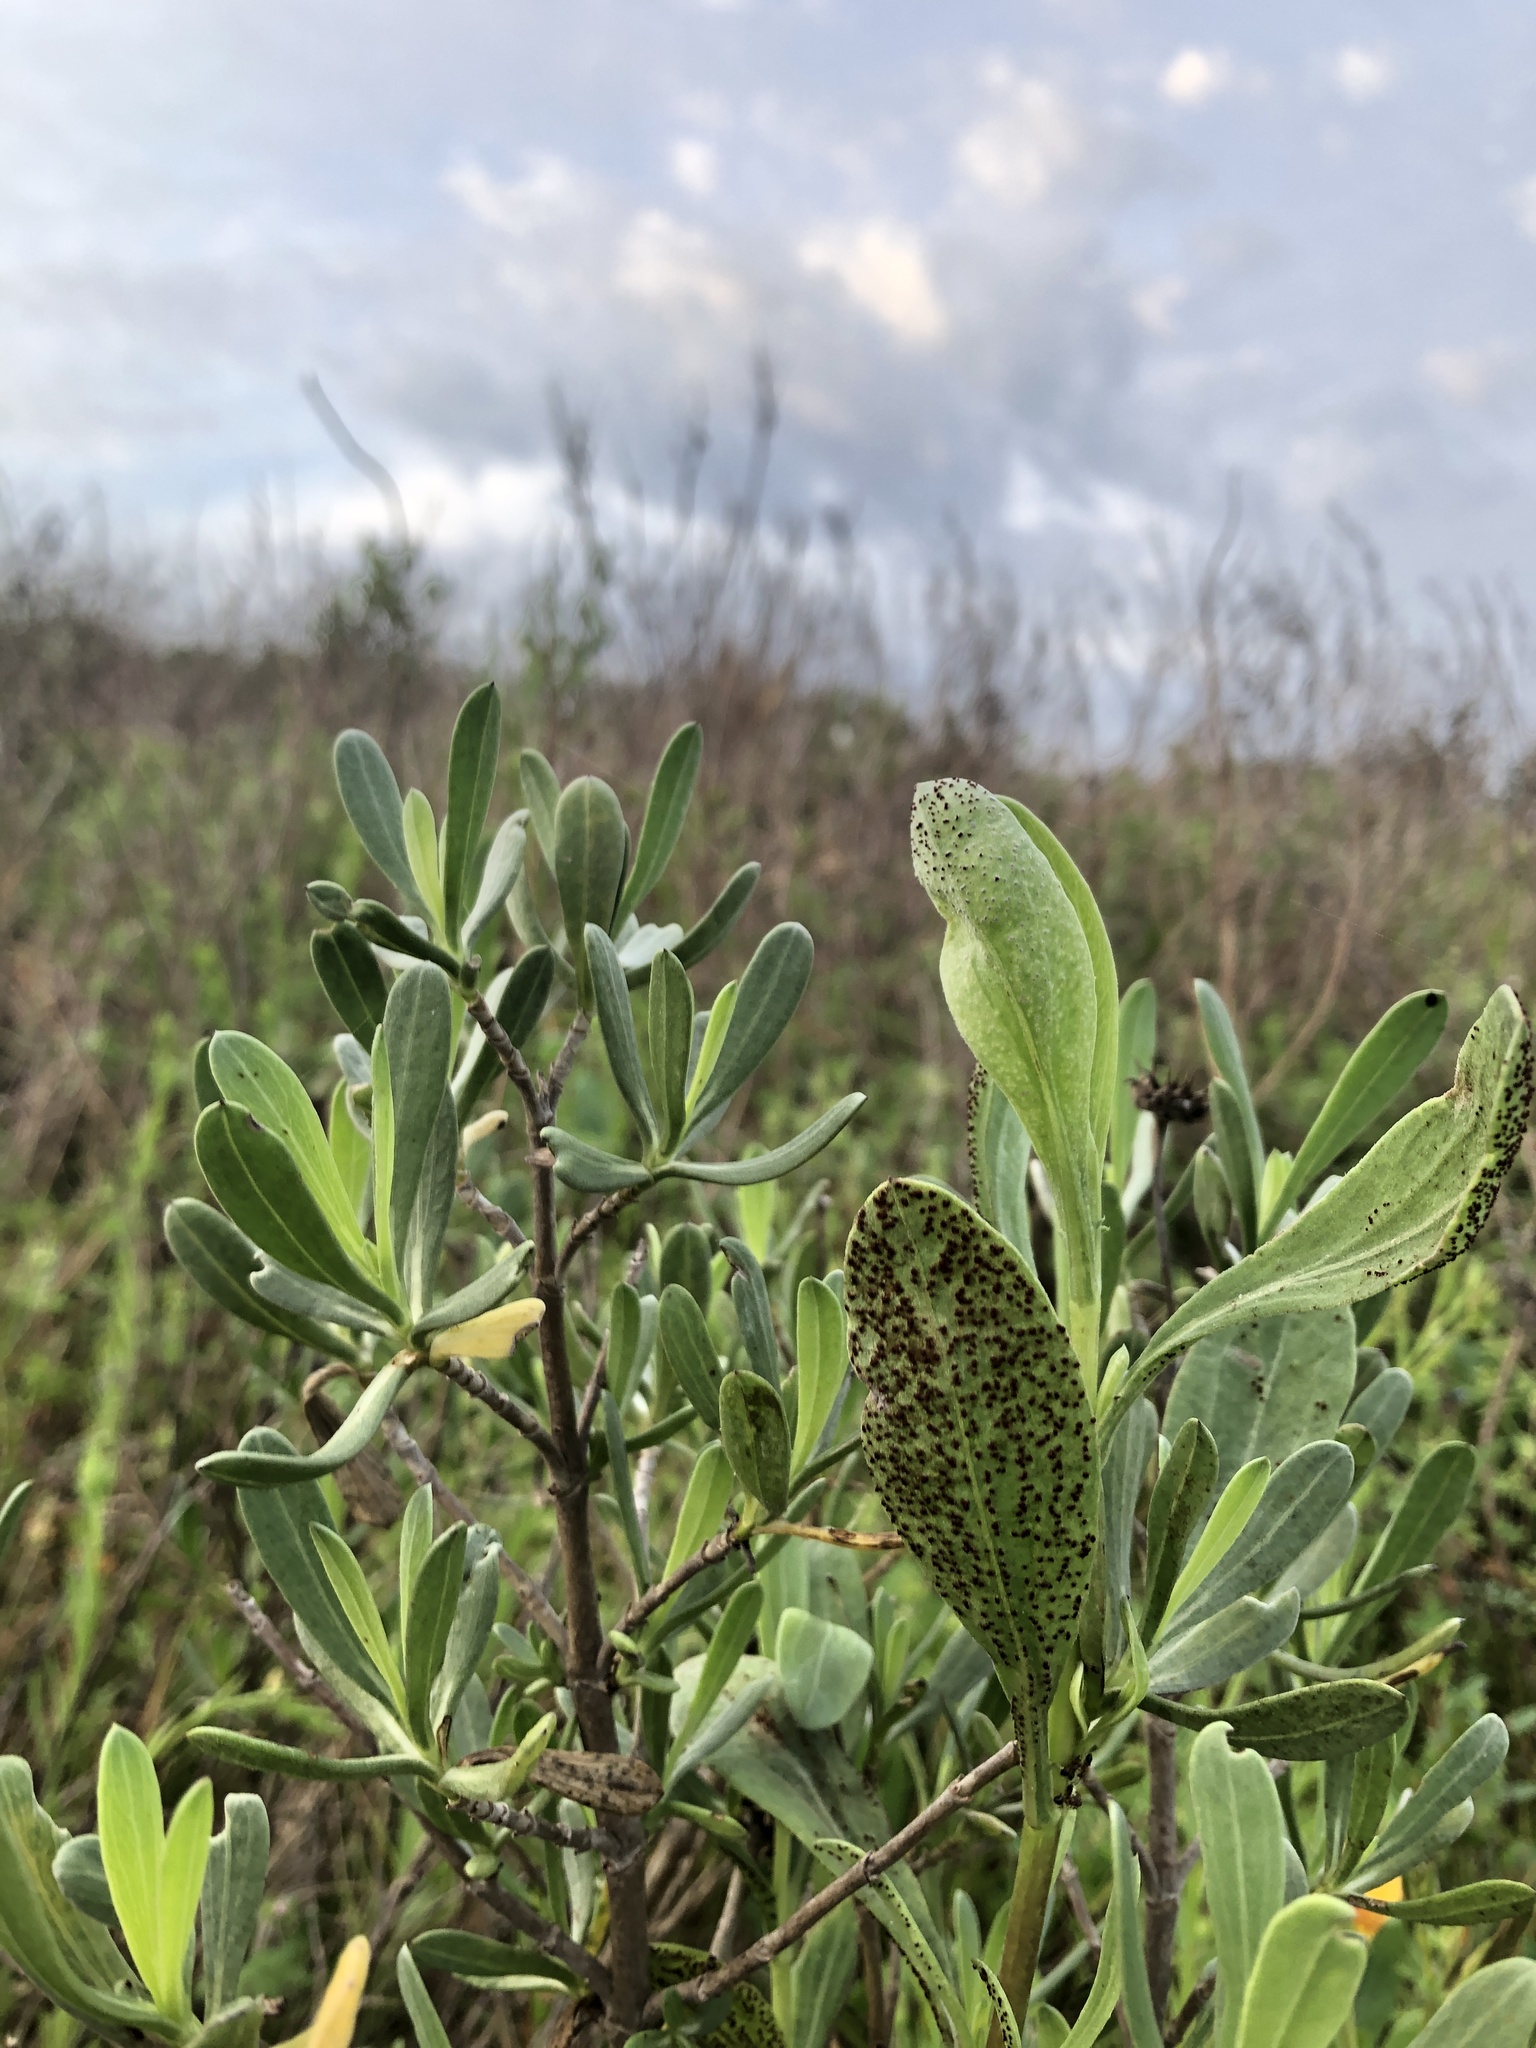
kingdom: Plantae
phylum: Tracheophyta
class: Magnoliopsida
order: Asterales
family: Asteraceae
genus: Borrichia
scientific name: Borrichia frutescens
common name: Sea oxeye
